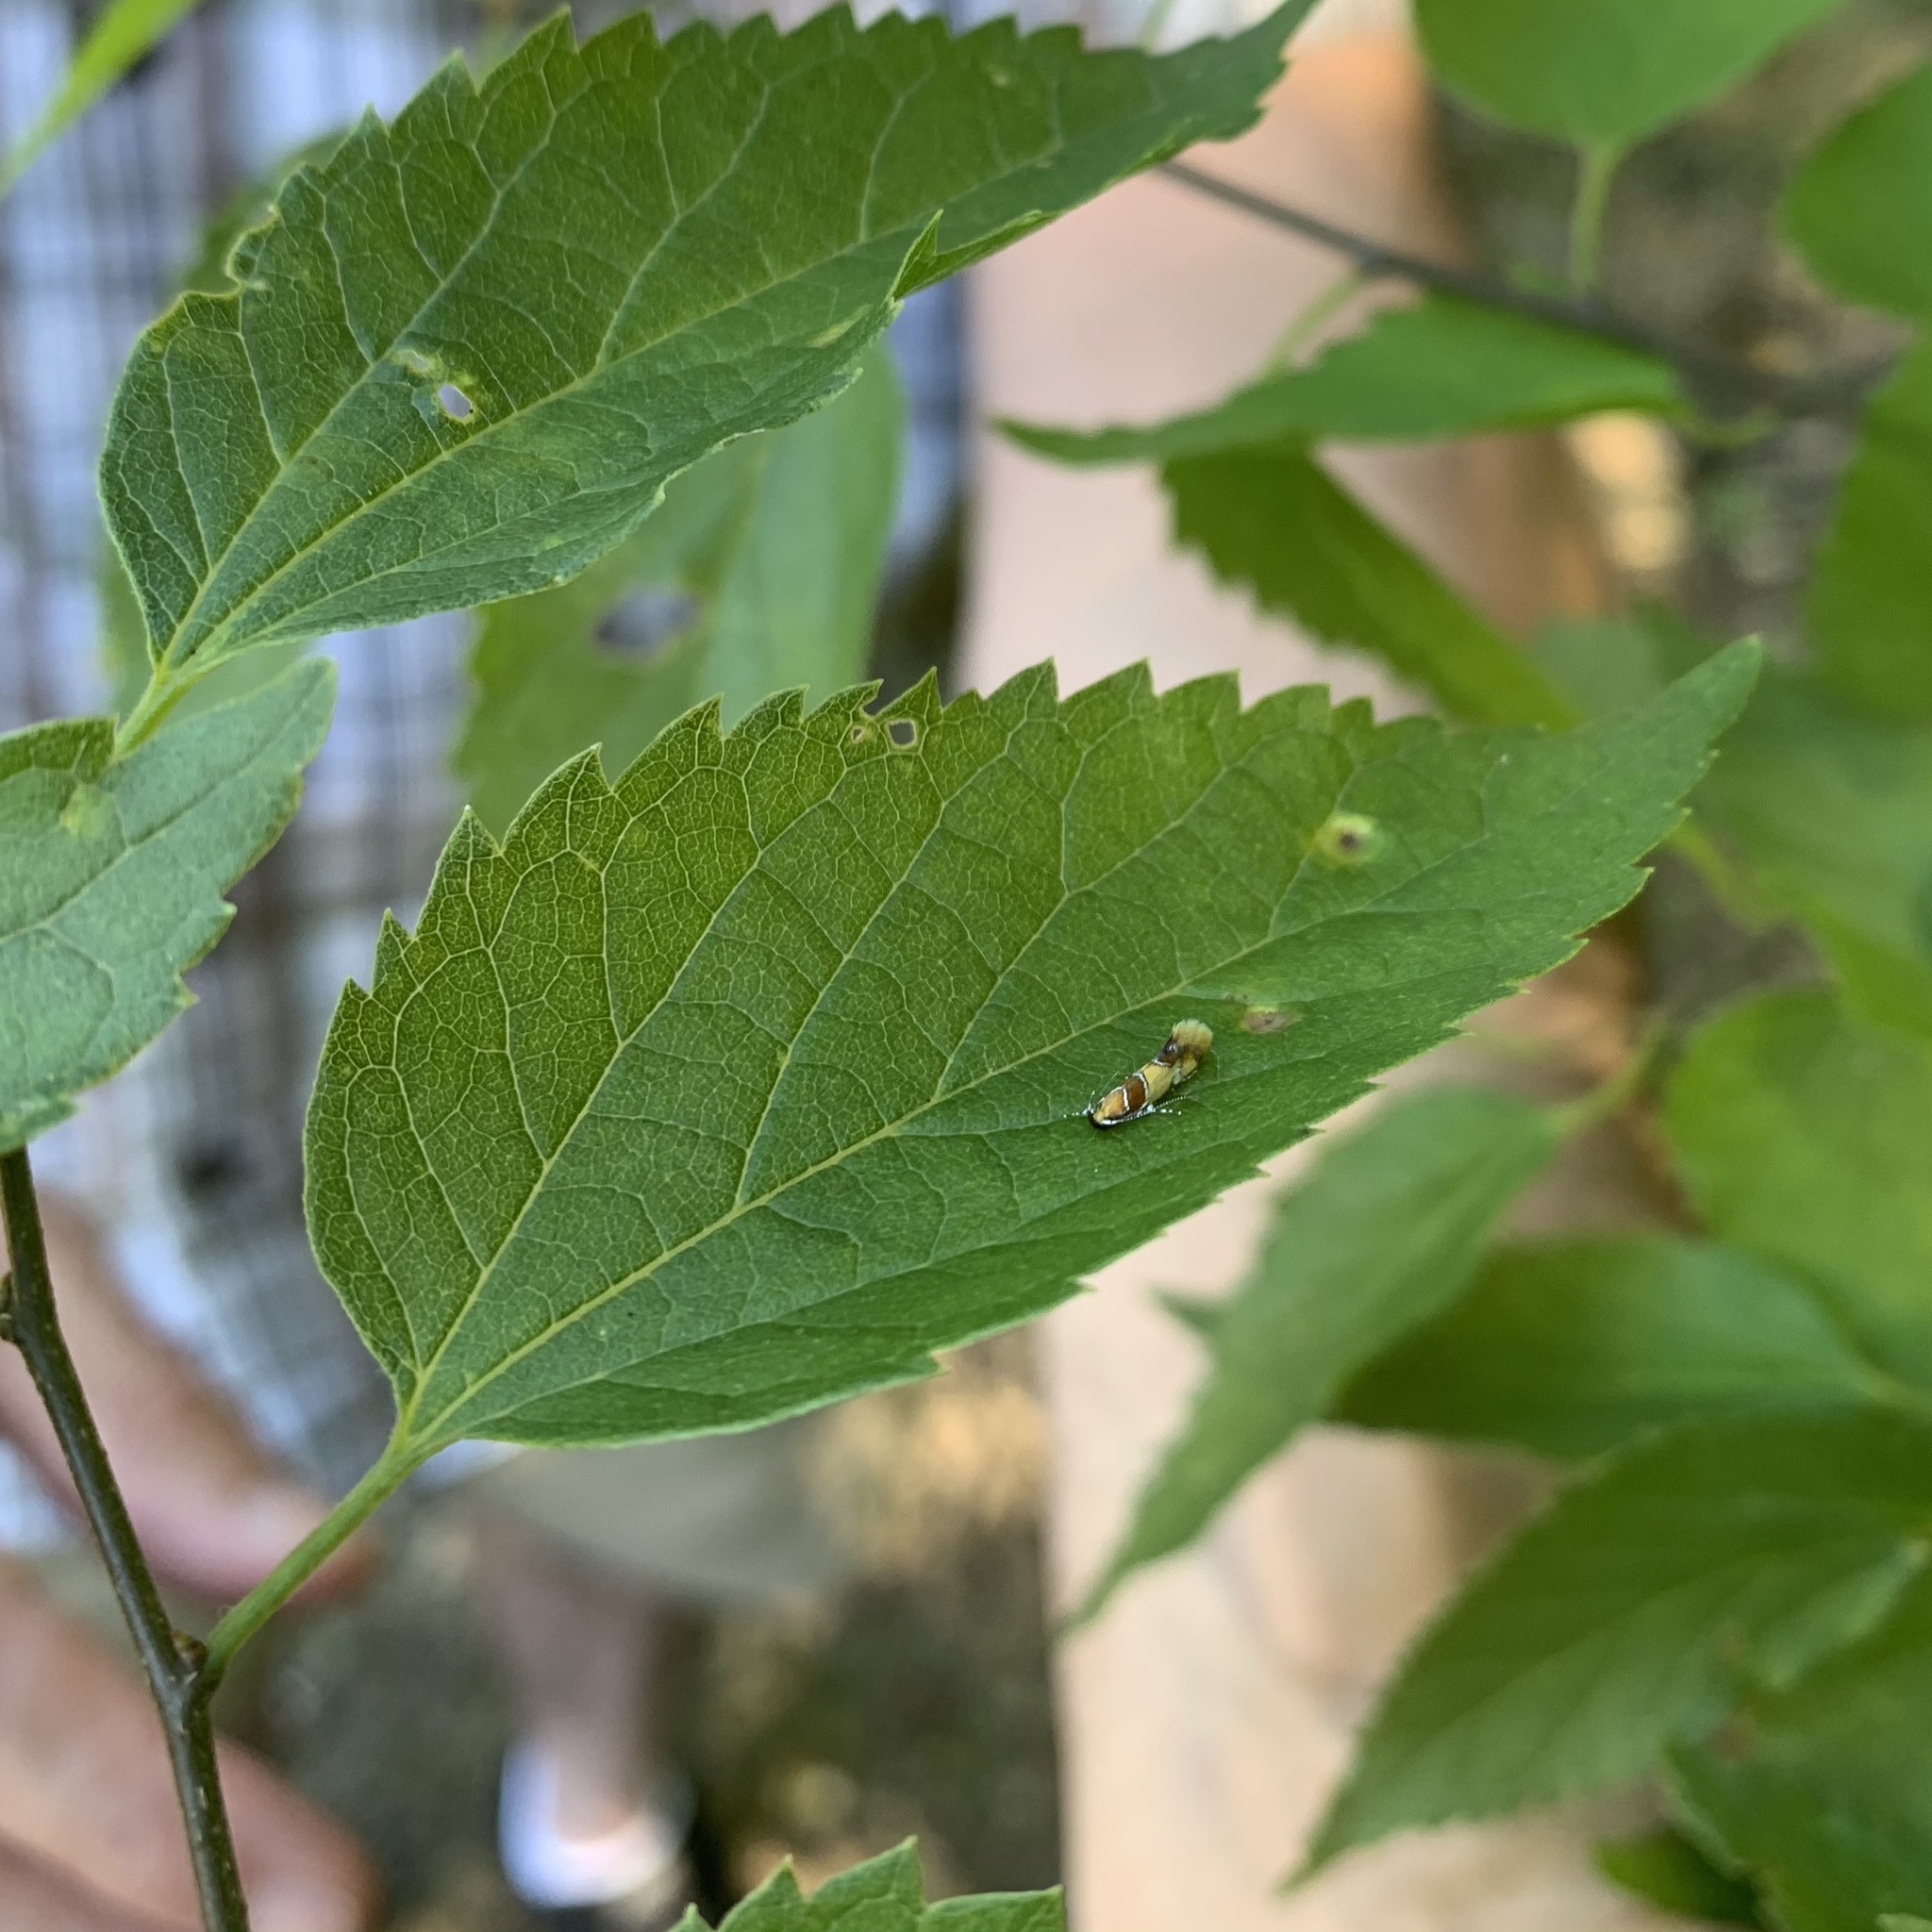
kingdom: Animalia
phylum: Arthropoda
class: Insecta
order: Lepidoptera
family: Oecophoridae
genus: Callima
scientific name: Callima argenticinctella
